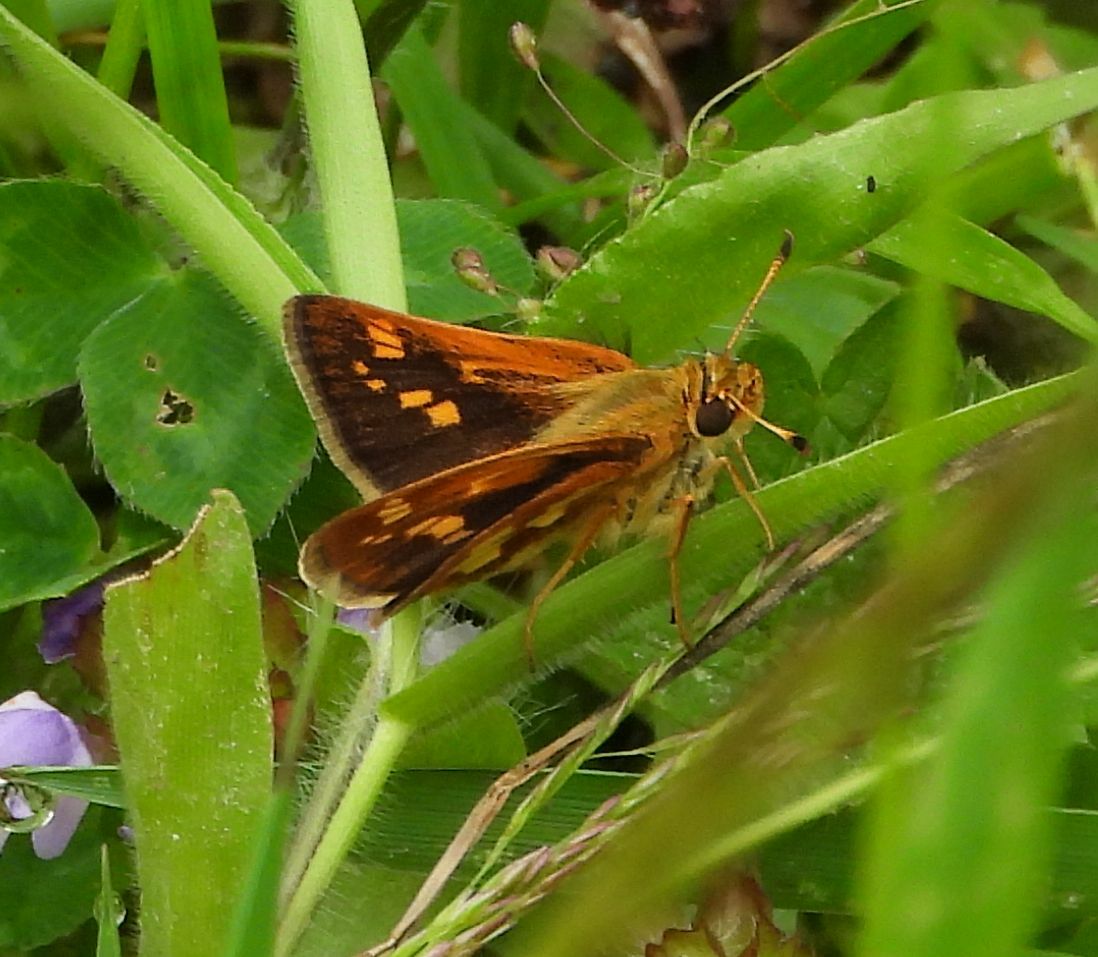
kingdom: Animalia
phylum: Arthropoda
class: Insecta
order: Lepidoptera
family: Hesperiidae
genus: Polites
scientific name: Polites coras
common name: Peck's skipper
